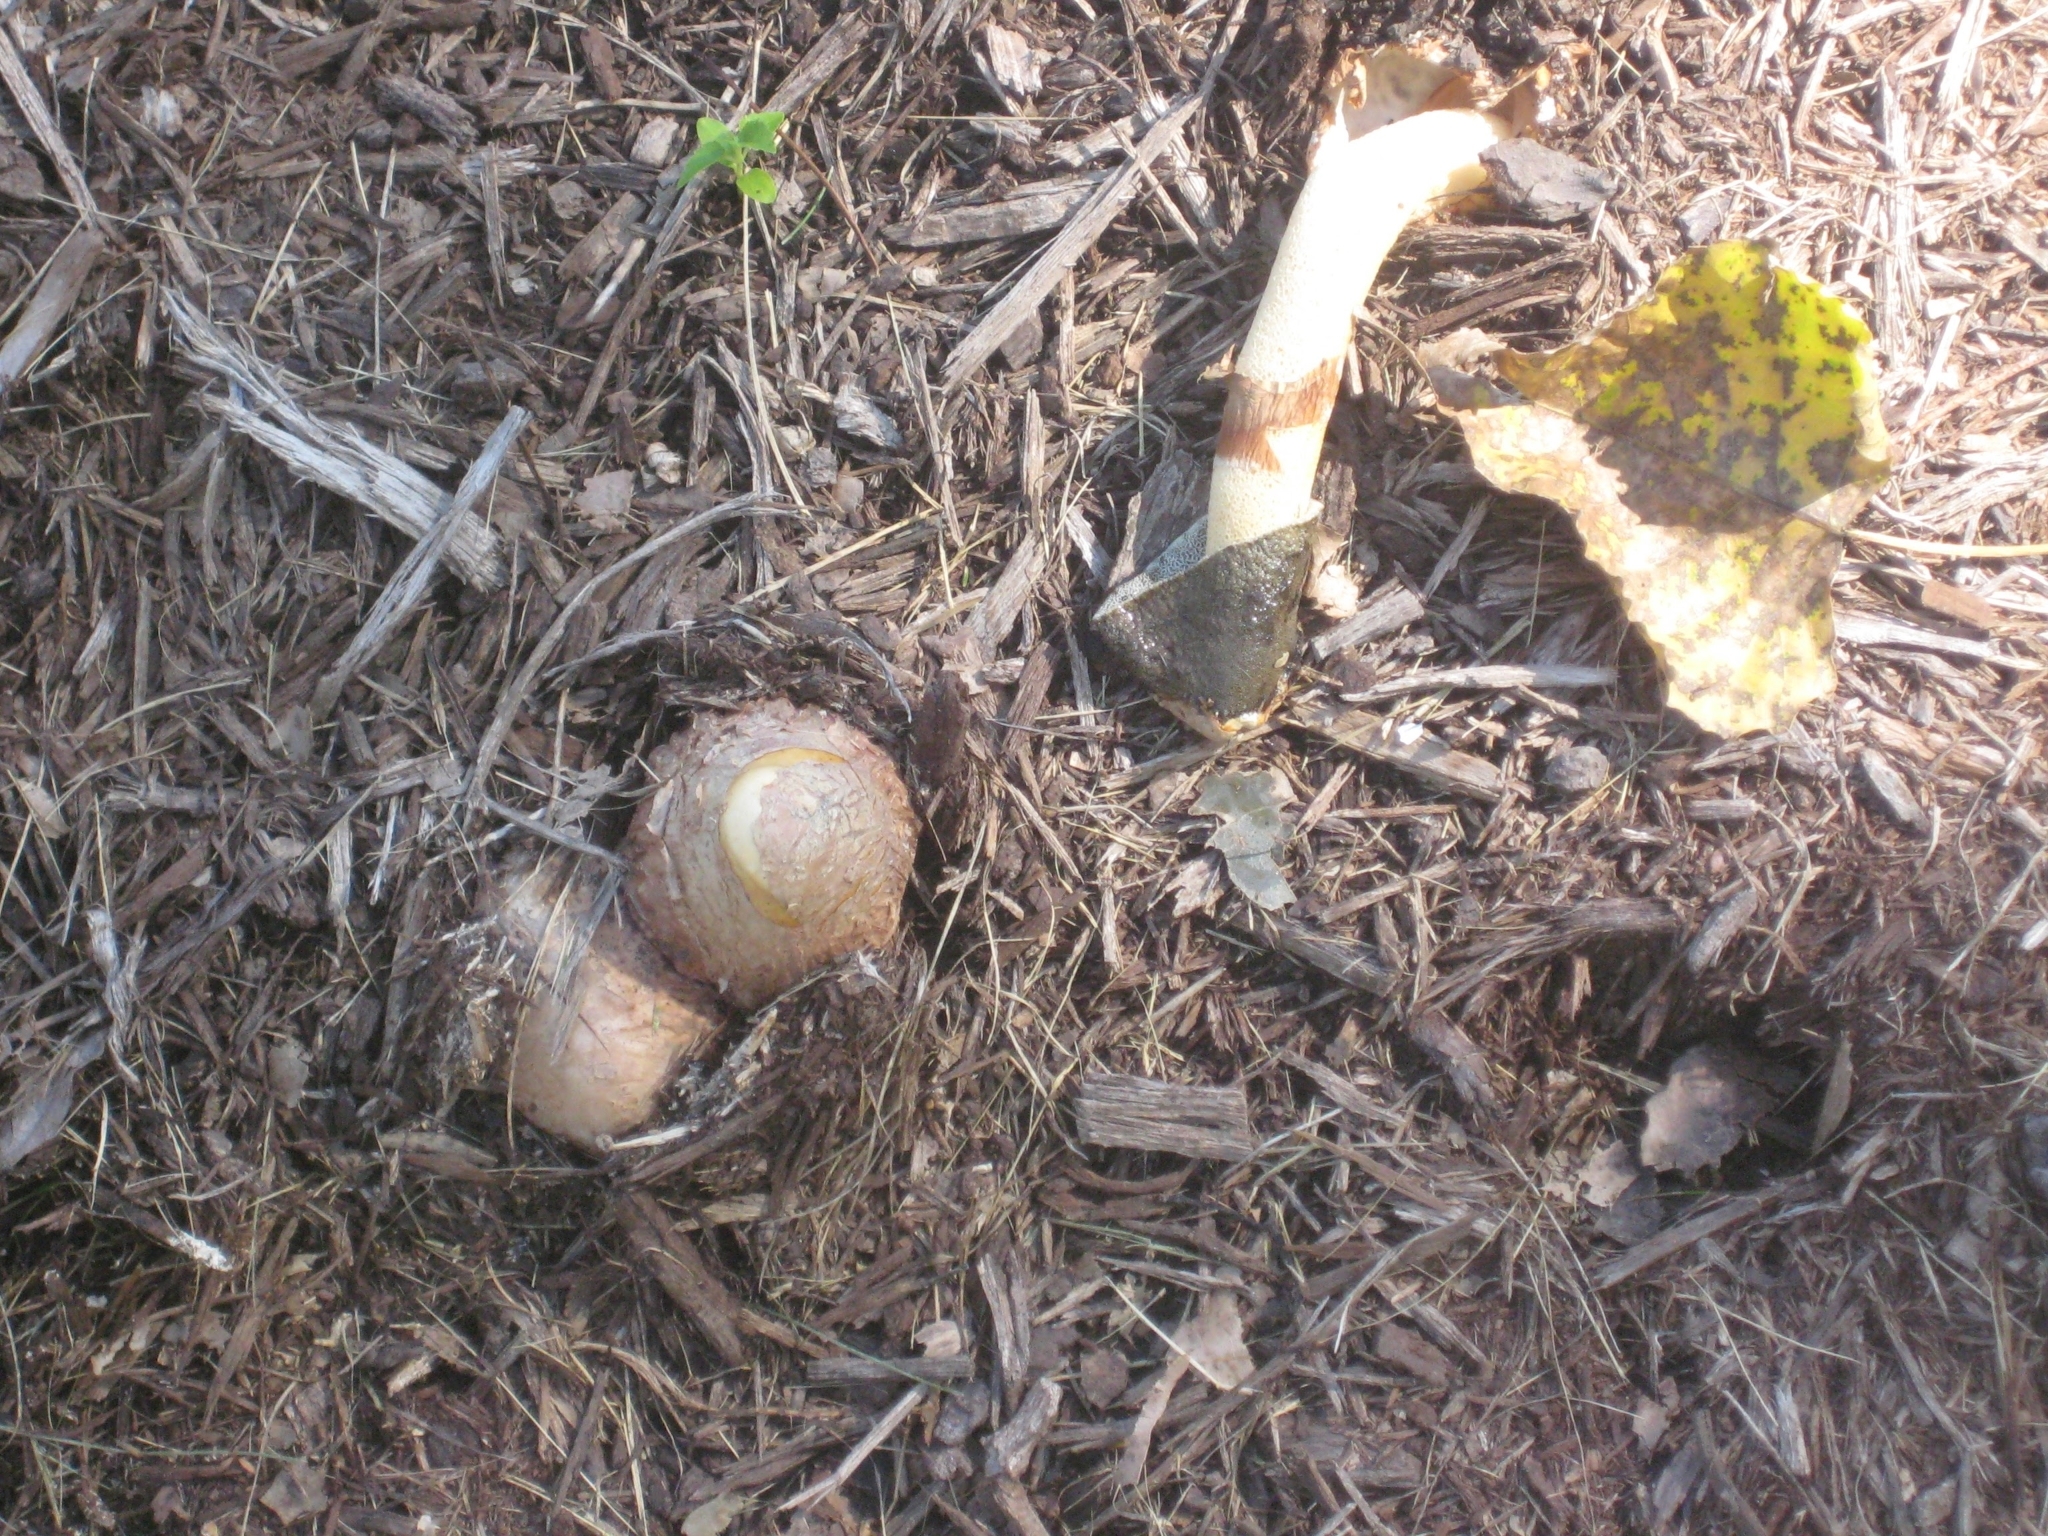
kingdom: Fungi
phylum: Basidiomycota
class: Agaricomycetes
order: Phallales
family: Phallaceae
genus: Phallus
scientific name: Phallus ravenelii
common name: Ravenel's stinkhorn
